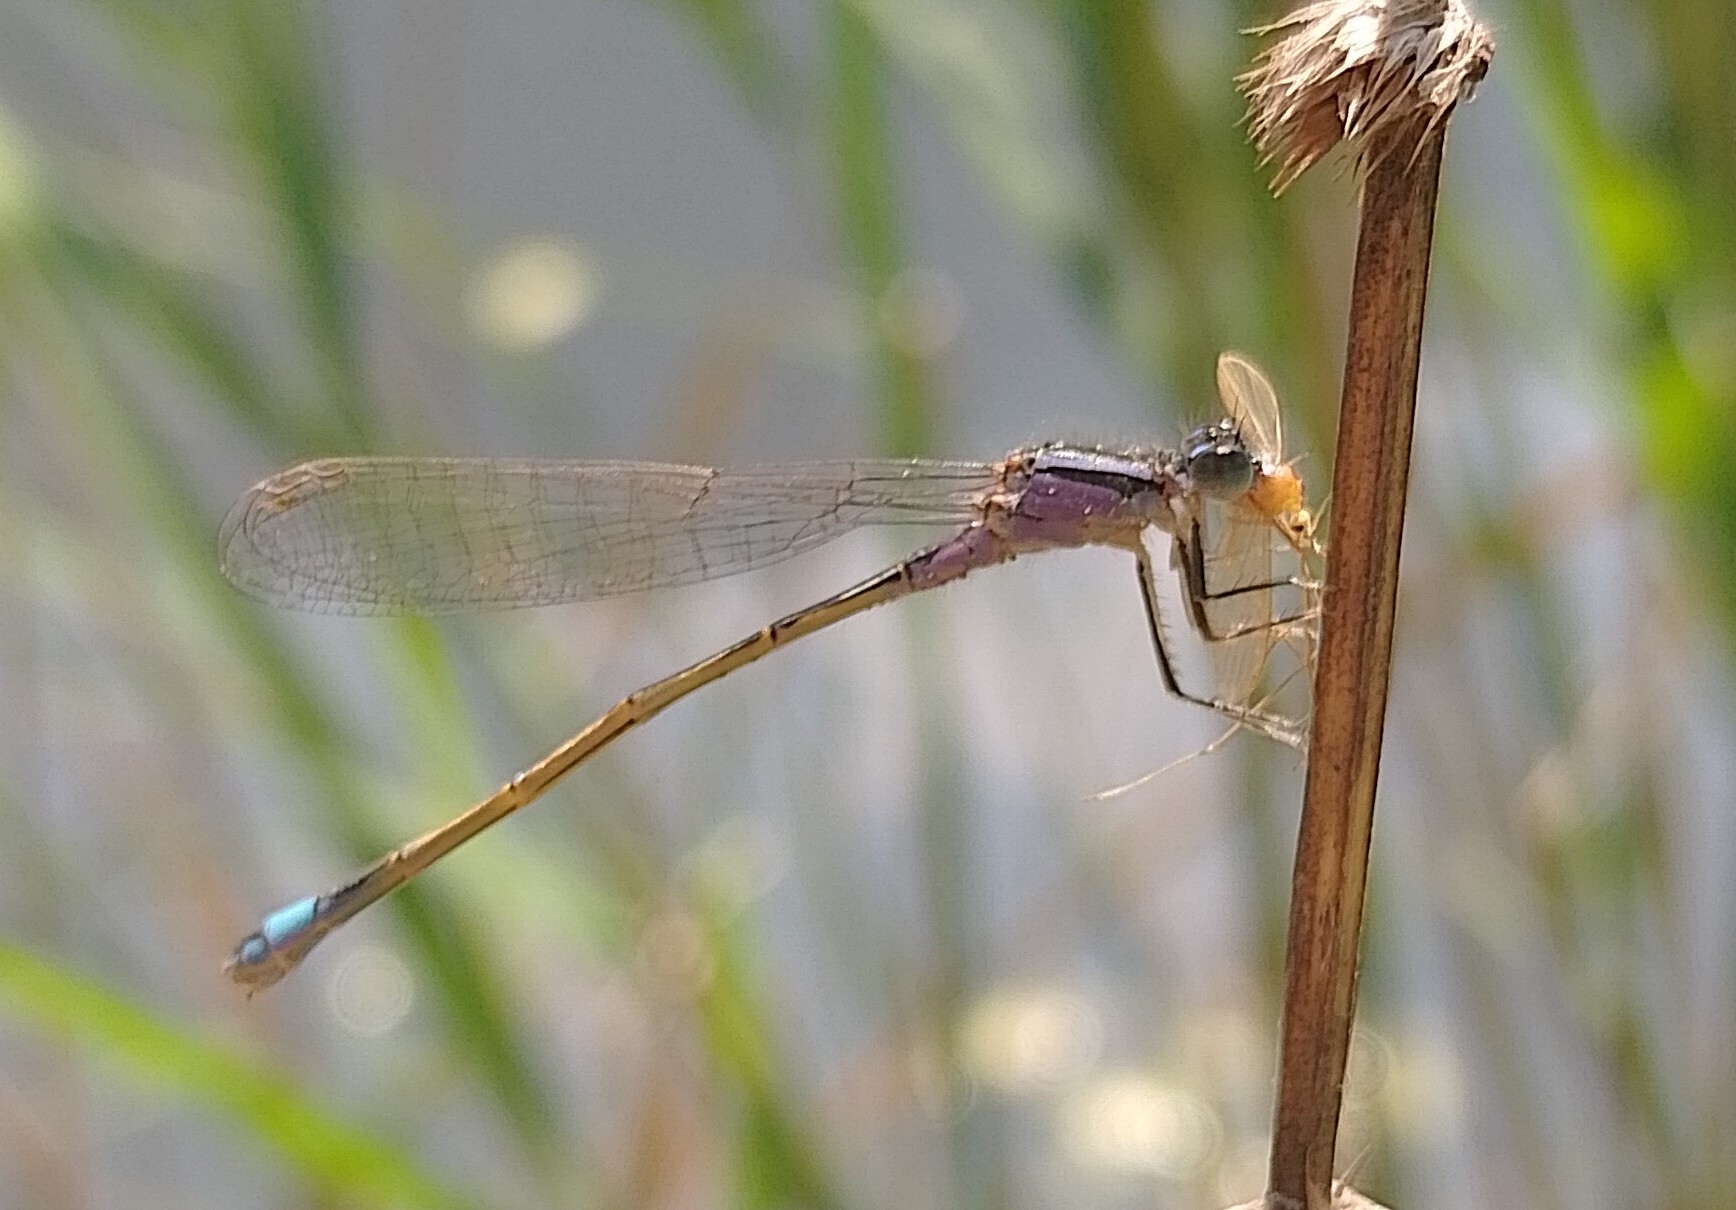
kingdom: Animalia
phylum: Arthropoda
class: Insecta
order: Odonata
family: Coenagrionidae
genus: Ischnura
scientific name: Ischnura elegans
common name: Blue-tailed damselfly
